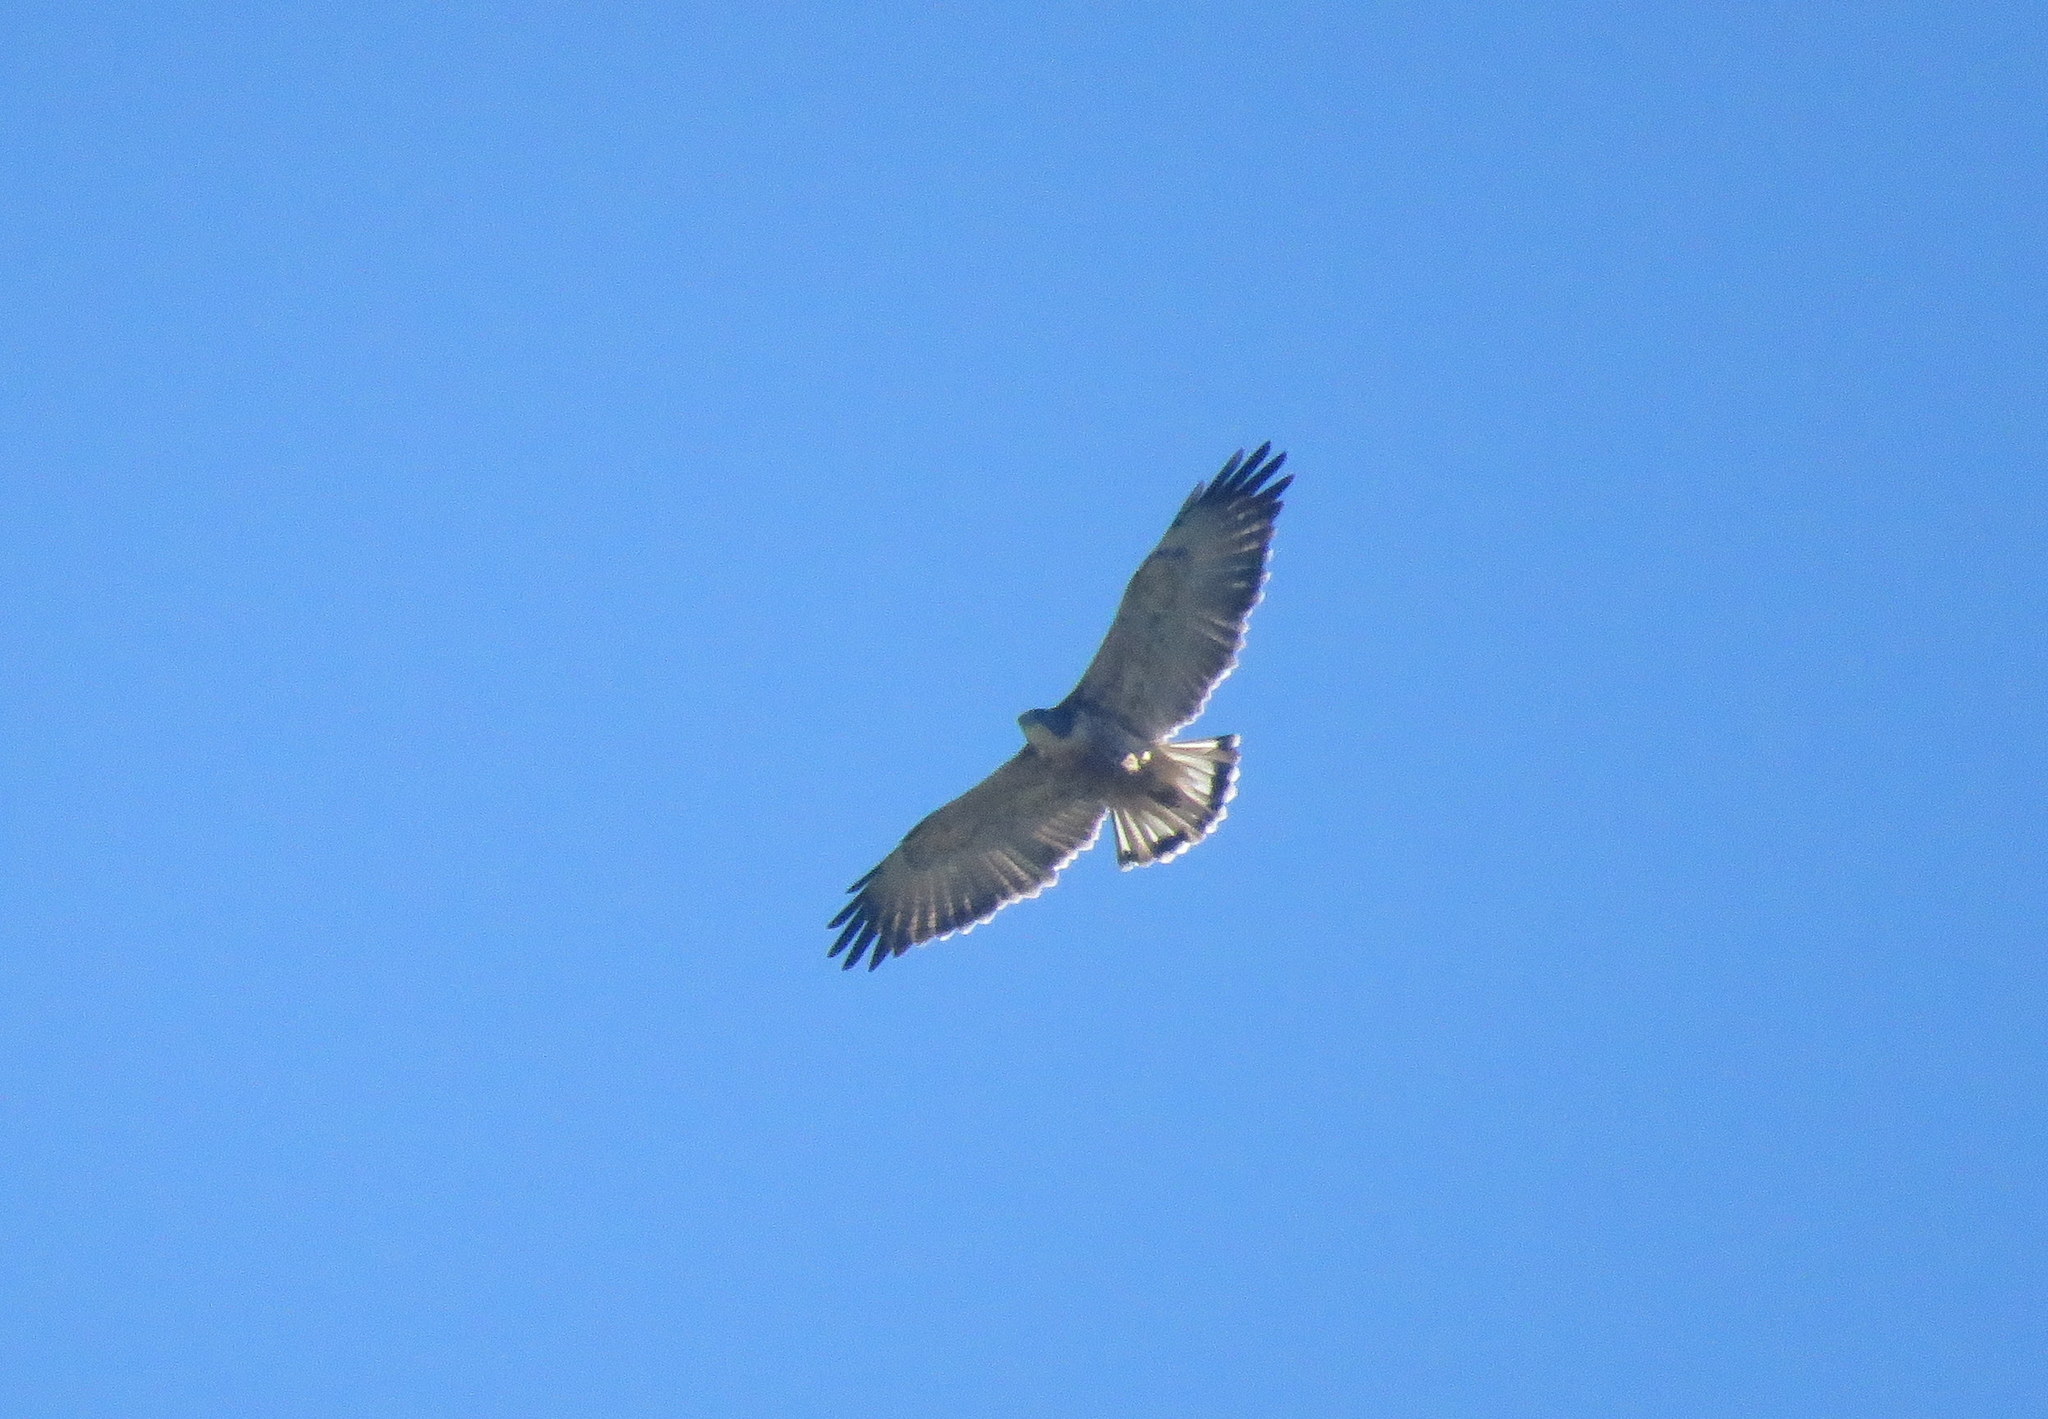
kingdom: Animalia
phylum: Chordata
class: Aves
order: Accipitriformes
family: Accipitridae
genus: Buteo
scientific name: Buteo polyosoma
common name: Variable hawk
